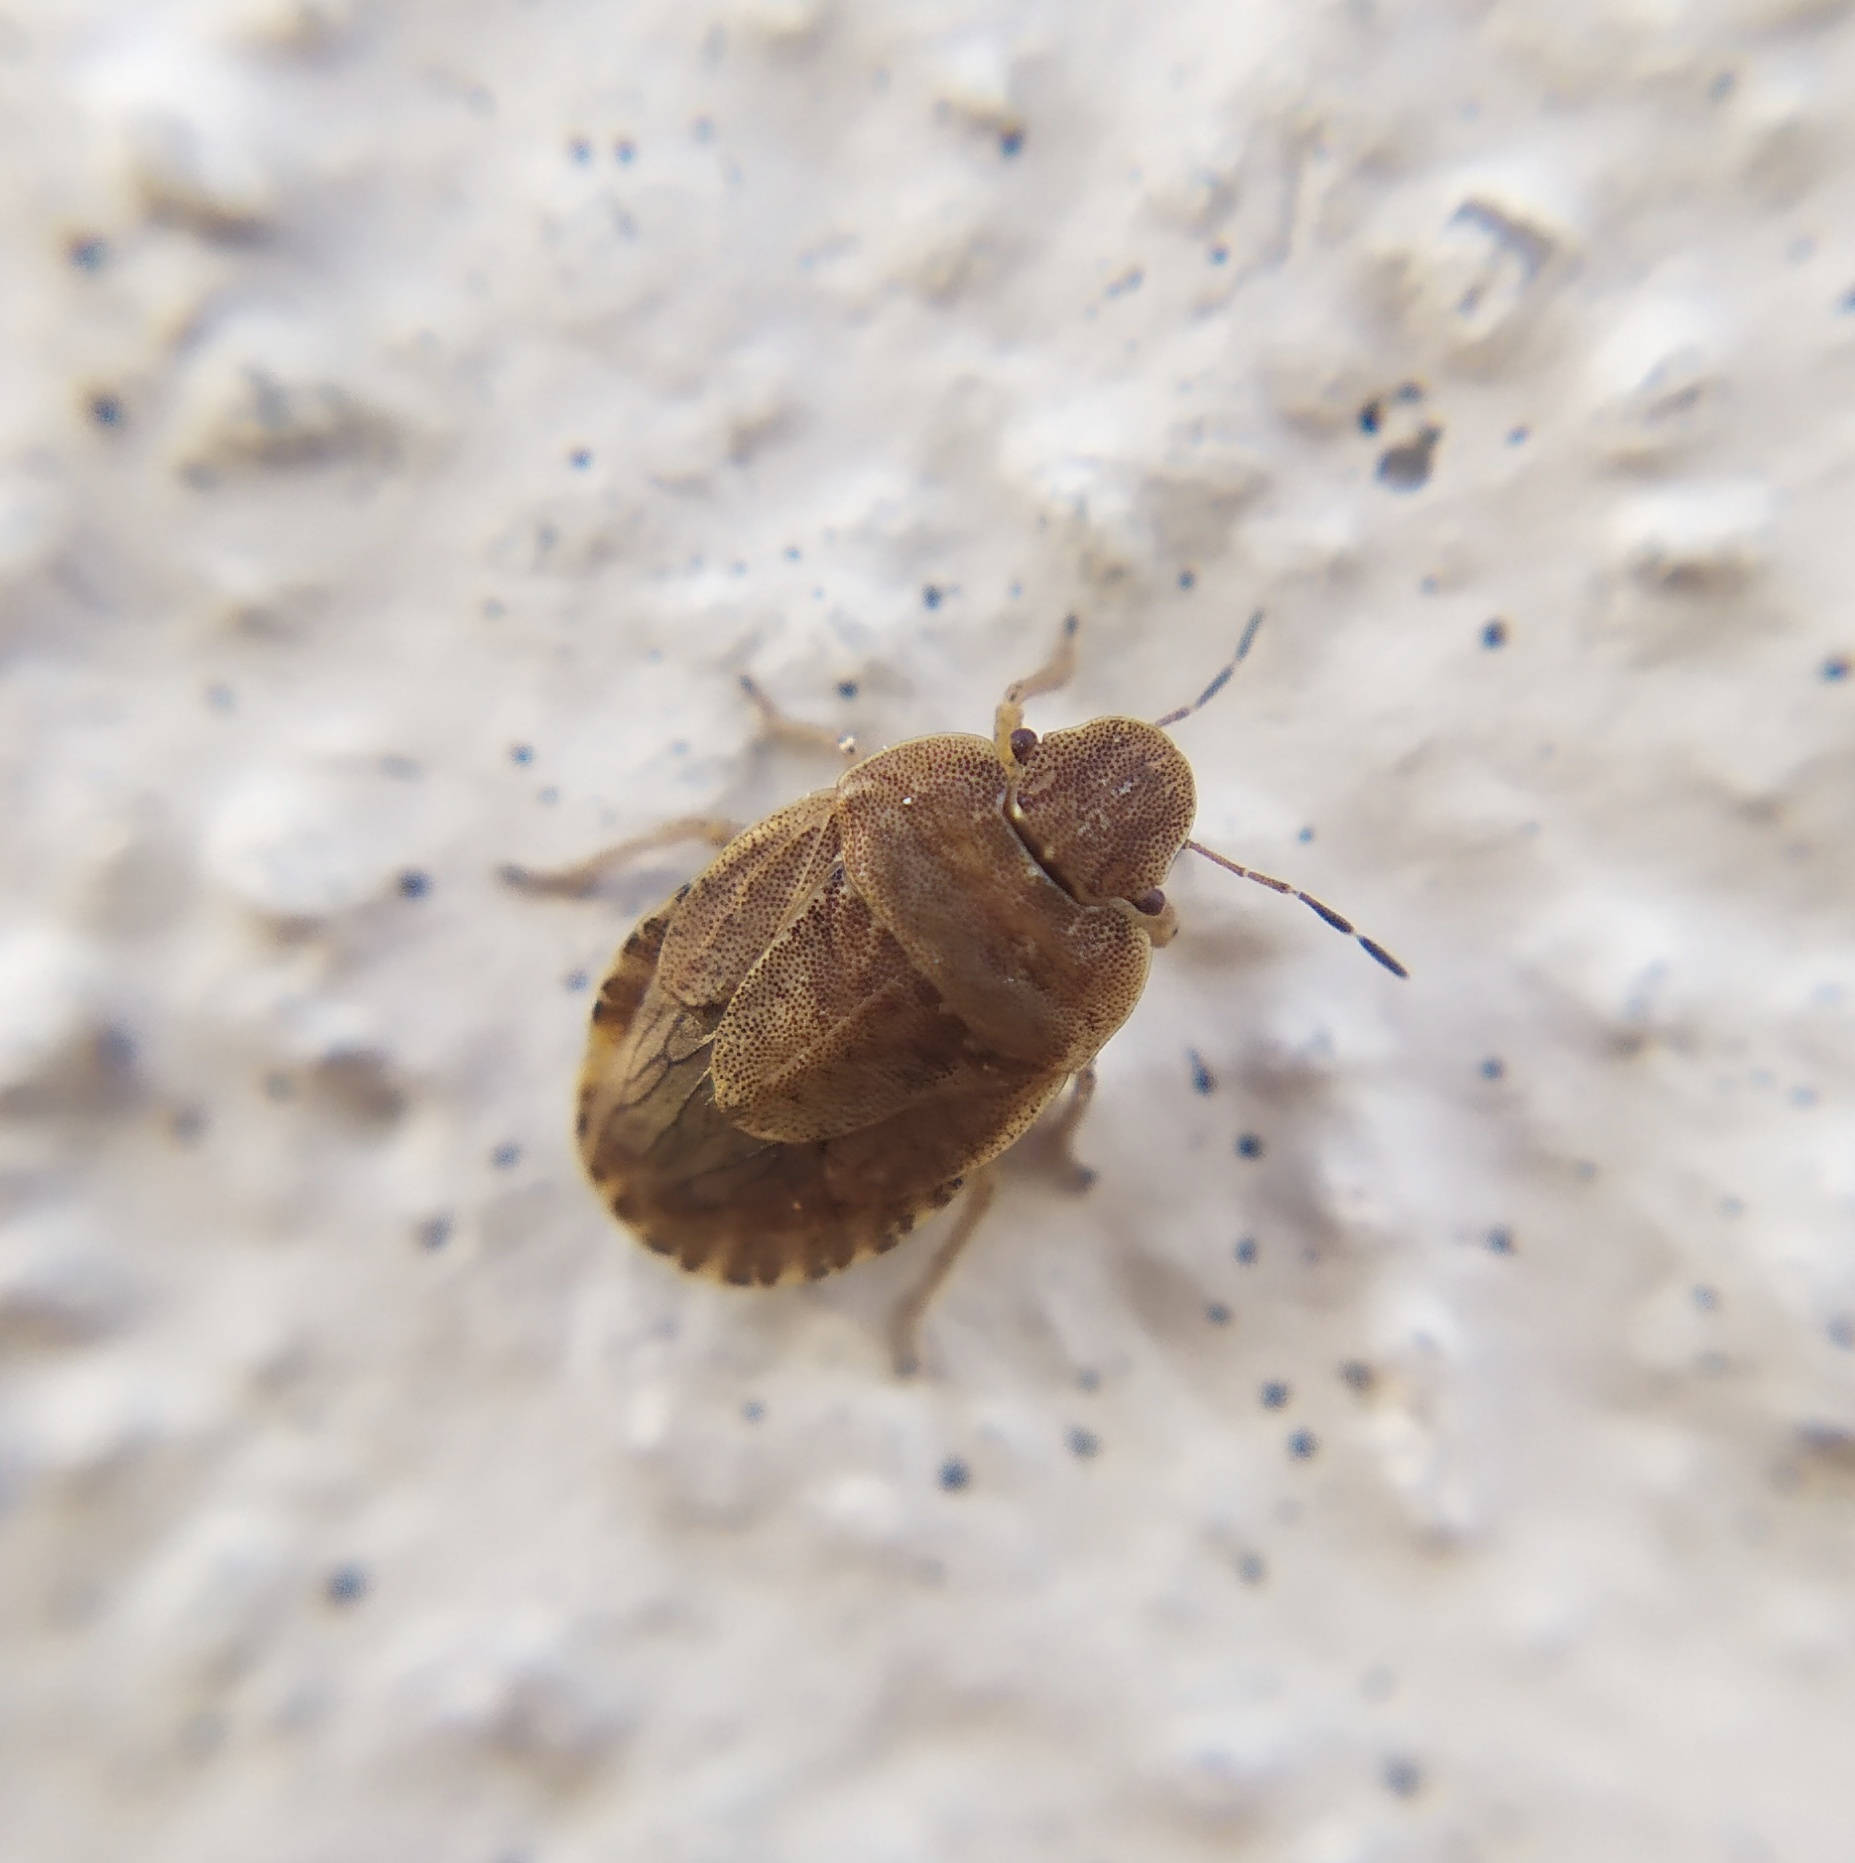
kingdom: Animalia
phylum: Arthropoda
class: Insecta
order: Hemiptera
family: Pentatomidae
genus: Sciocoris
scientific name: Sciocoris cursitans
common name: Sandrunner
